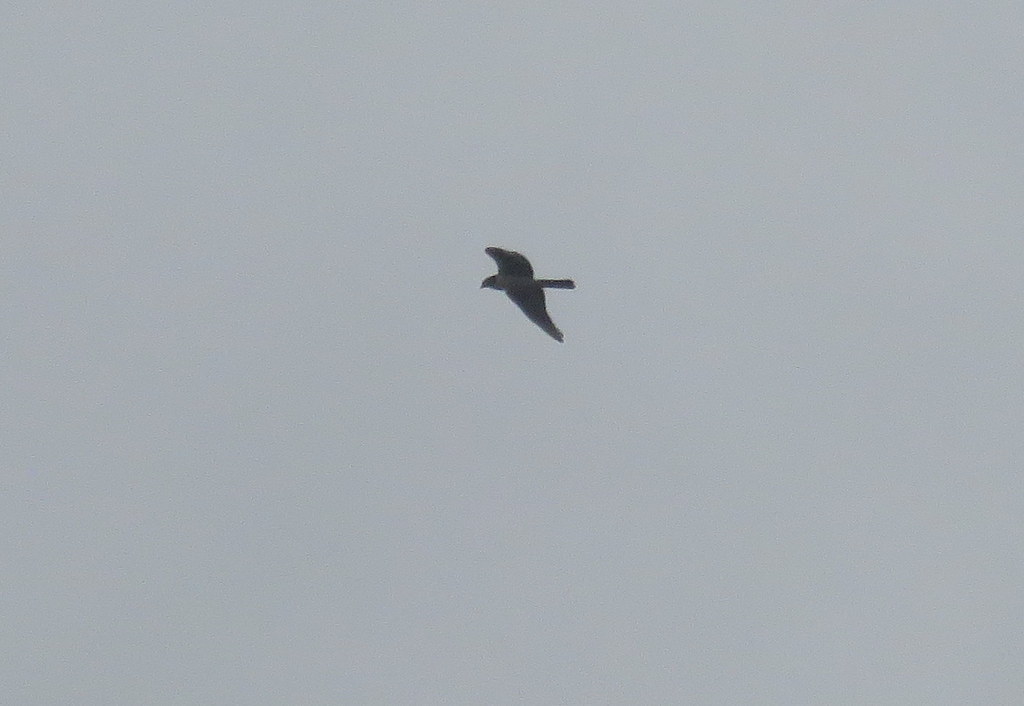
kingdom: Animalia
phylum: Chordata
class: Aves
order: Accipitriformes
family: Accipitridae
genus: Circus
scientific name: Circus buffoni
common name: Long-winged harrier
